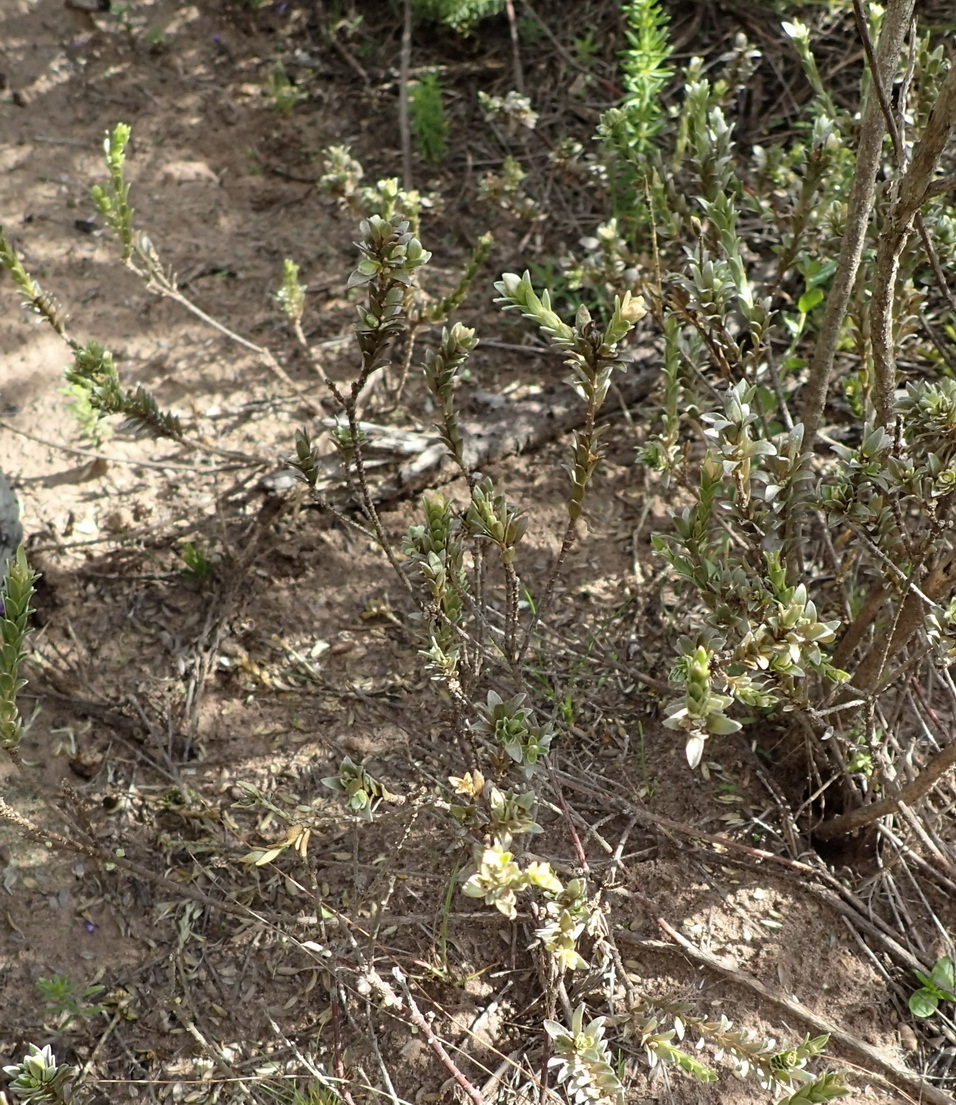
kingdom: Plantae
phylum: Tracheophyta
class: Magnoliopsida
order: Malvales
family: Thymelaeaceae
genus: Gnidia
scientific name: Gnidia chrysophylla
